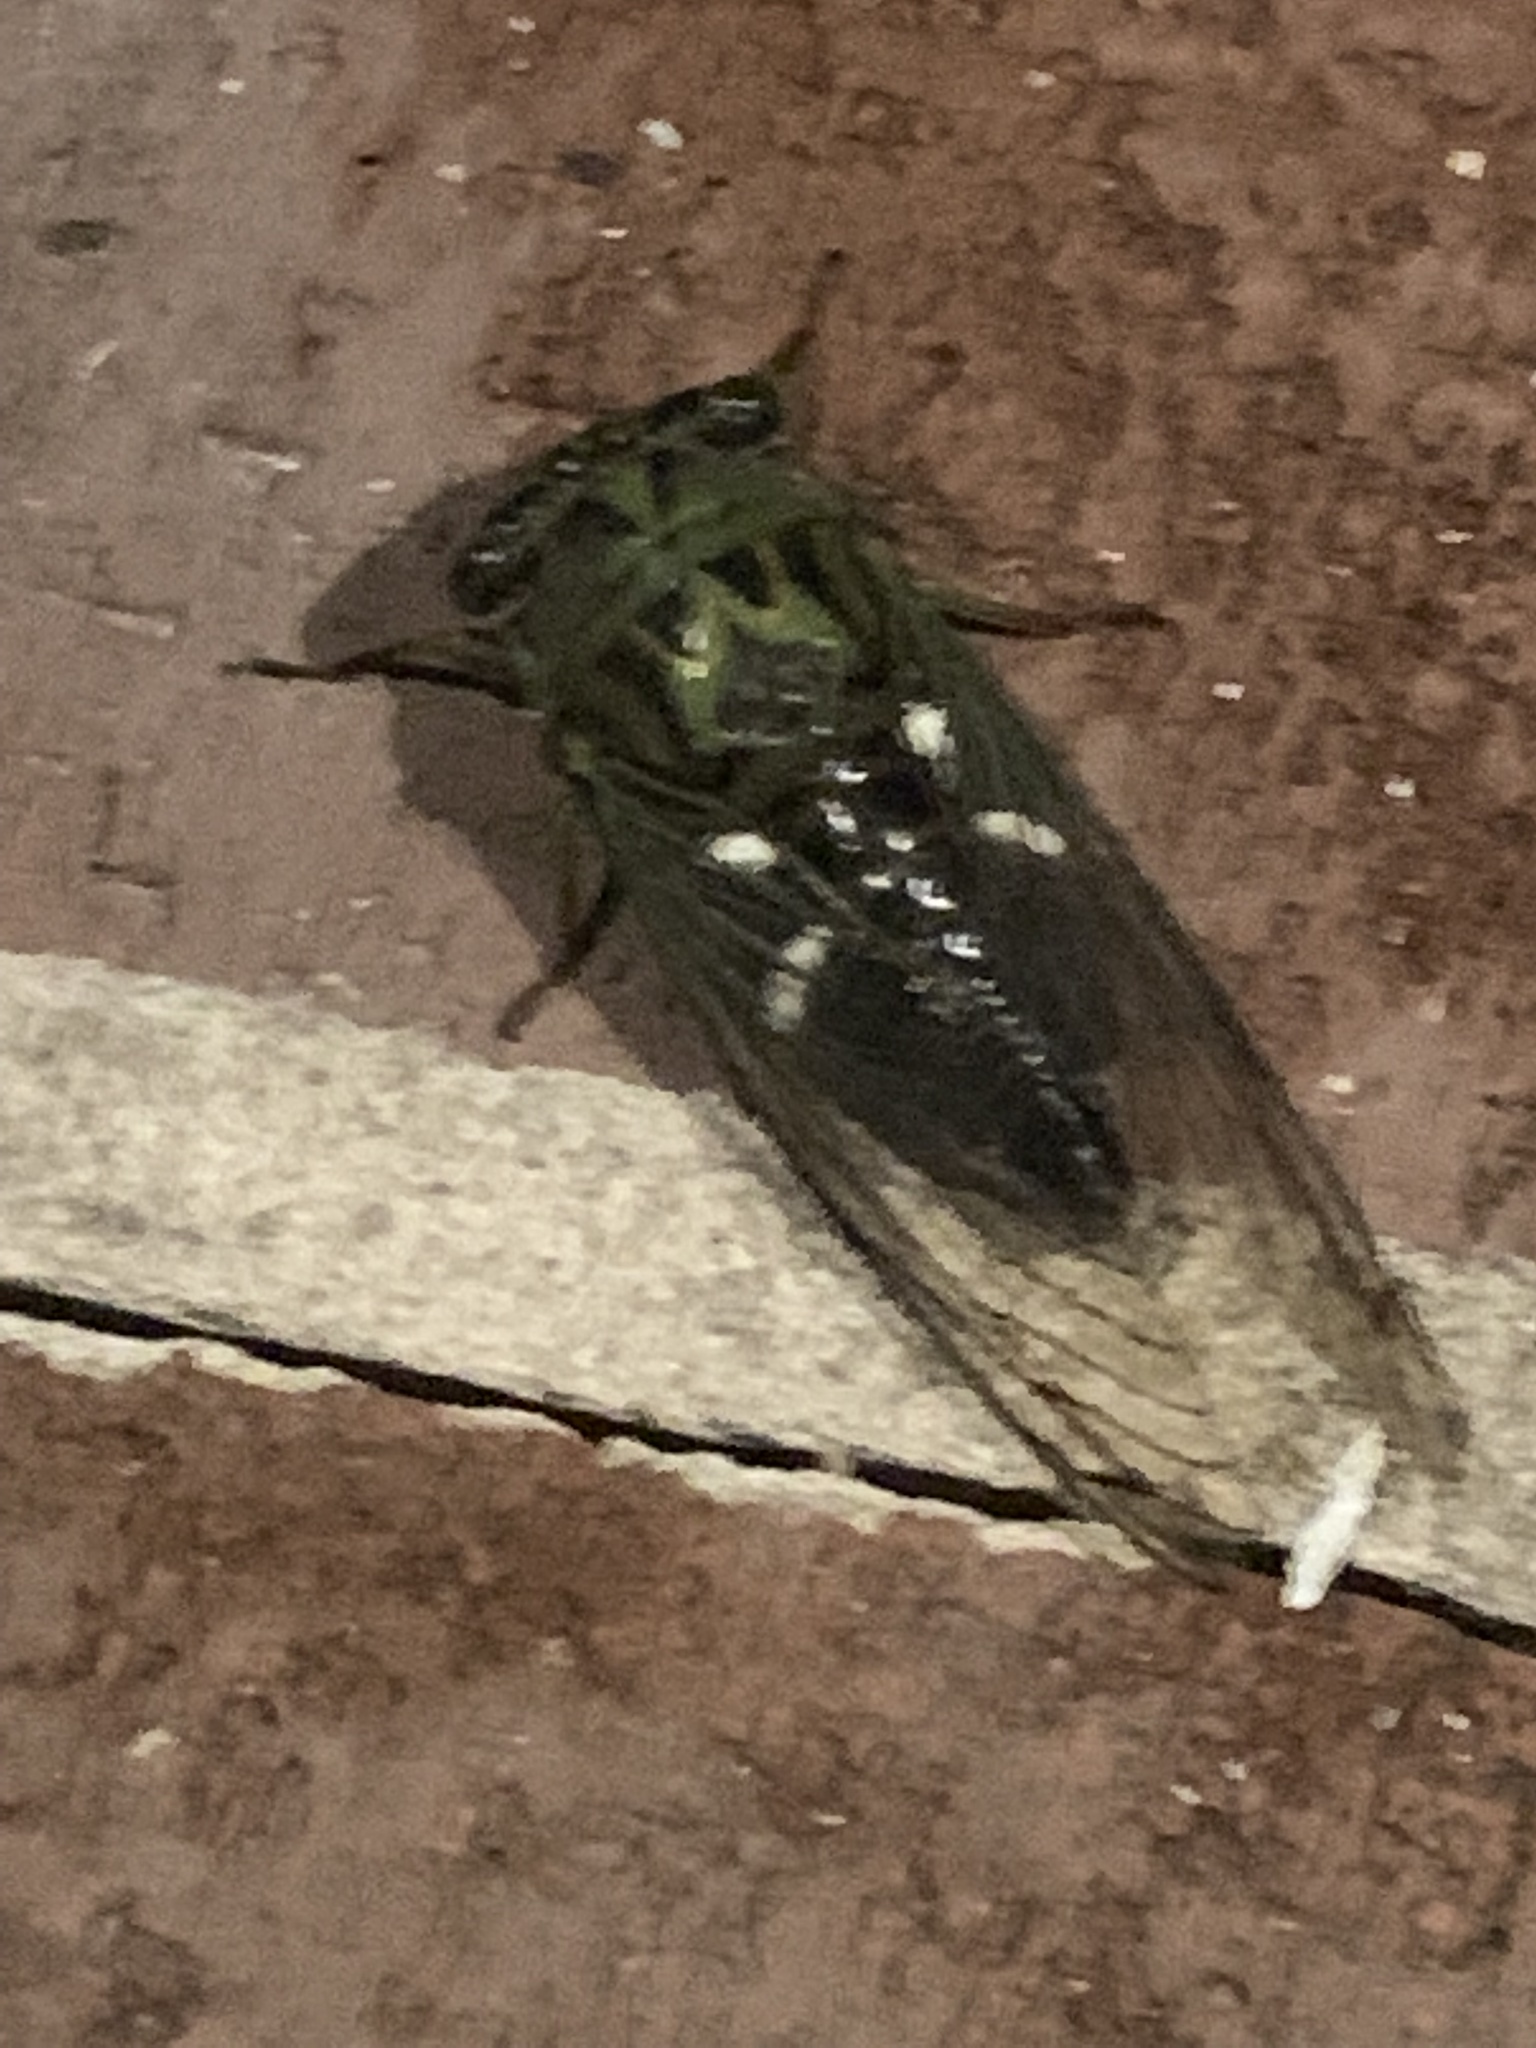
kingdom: Animalia
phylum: Arthropoda
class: Insecta
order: Hemiptera
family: Cicadidae
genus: Neotibicen
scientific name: Neotibicen latifasciatus
